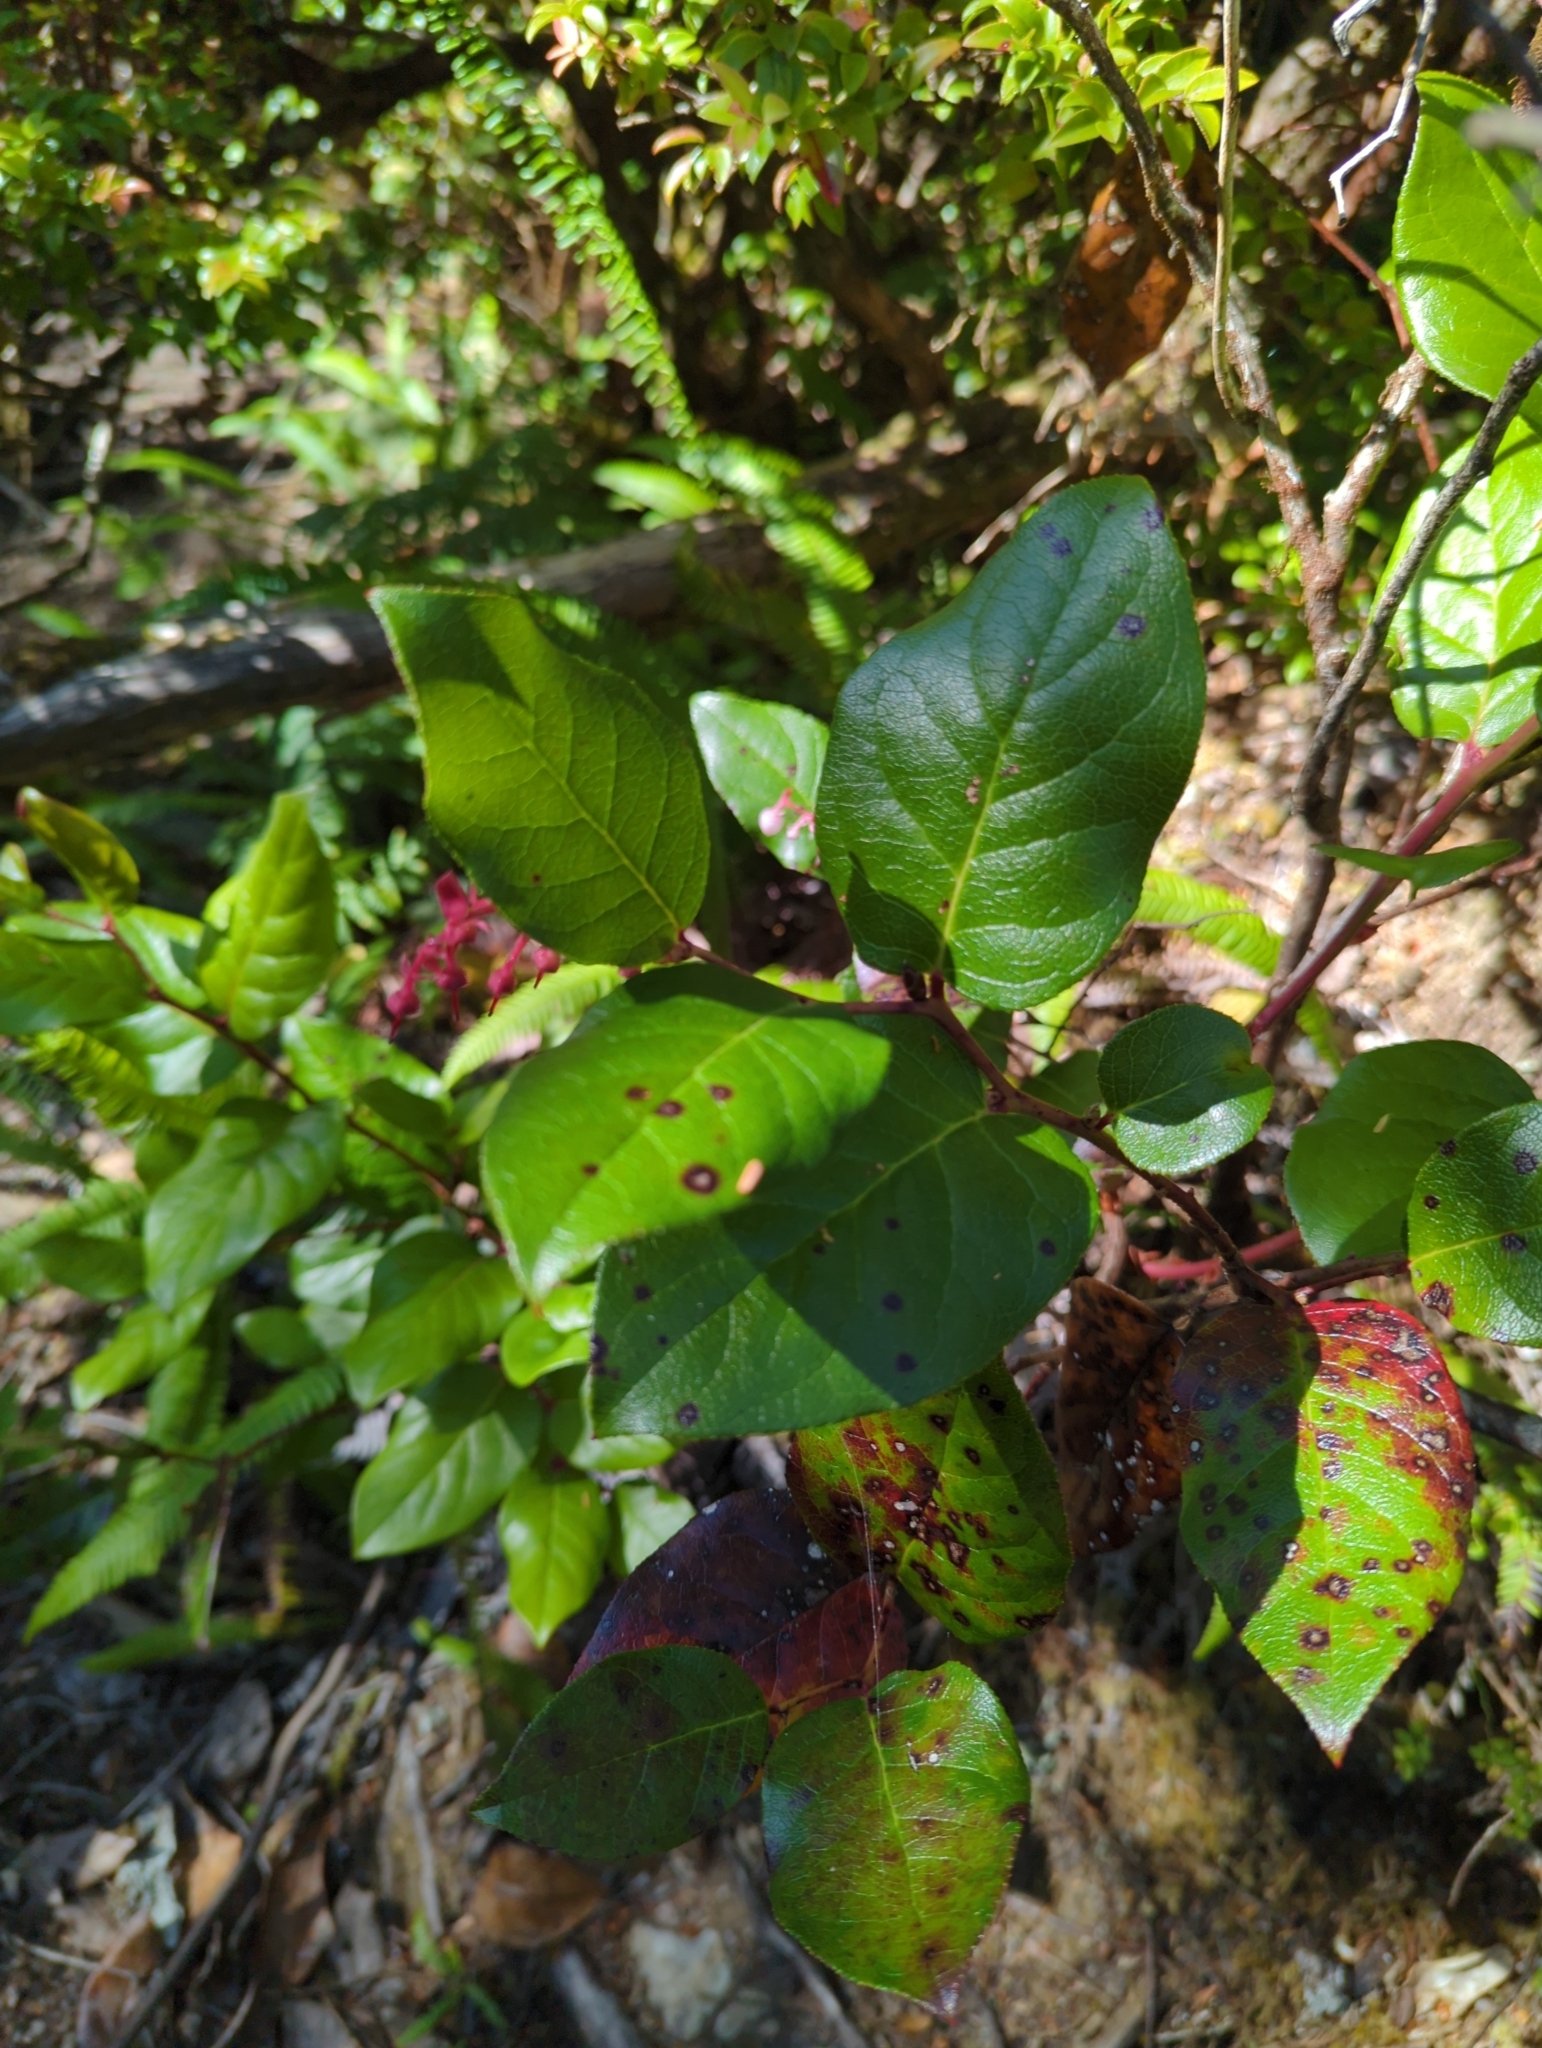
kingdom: Plantae
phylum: Tracheophyta
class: Magnoliopsida
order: Ericales
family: Ericaceae
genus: Gaultheria
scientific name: Gaultheria shallon
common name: Shallon
